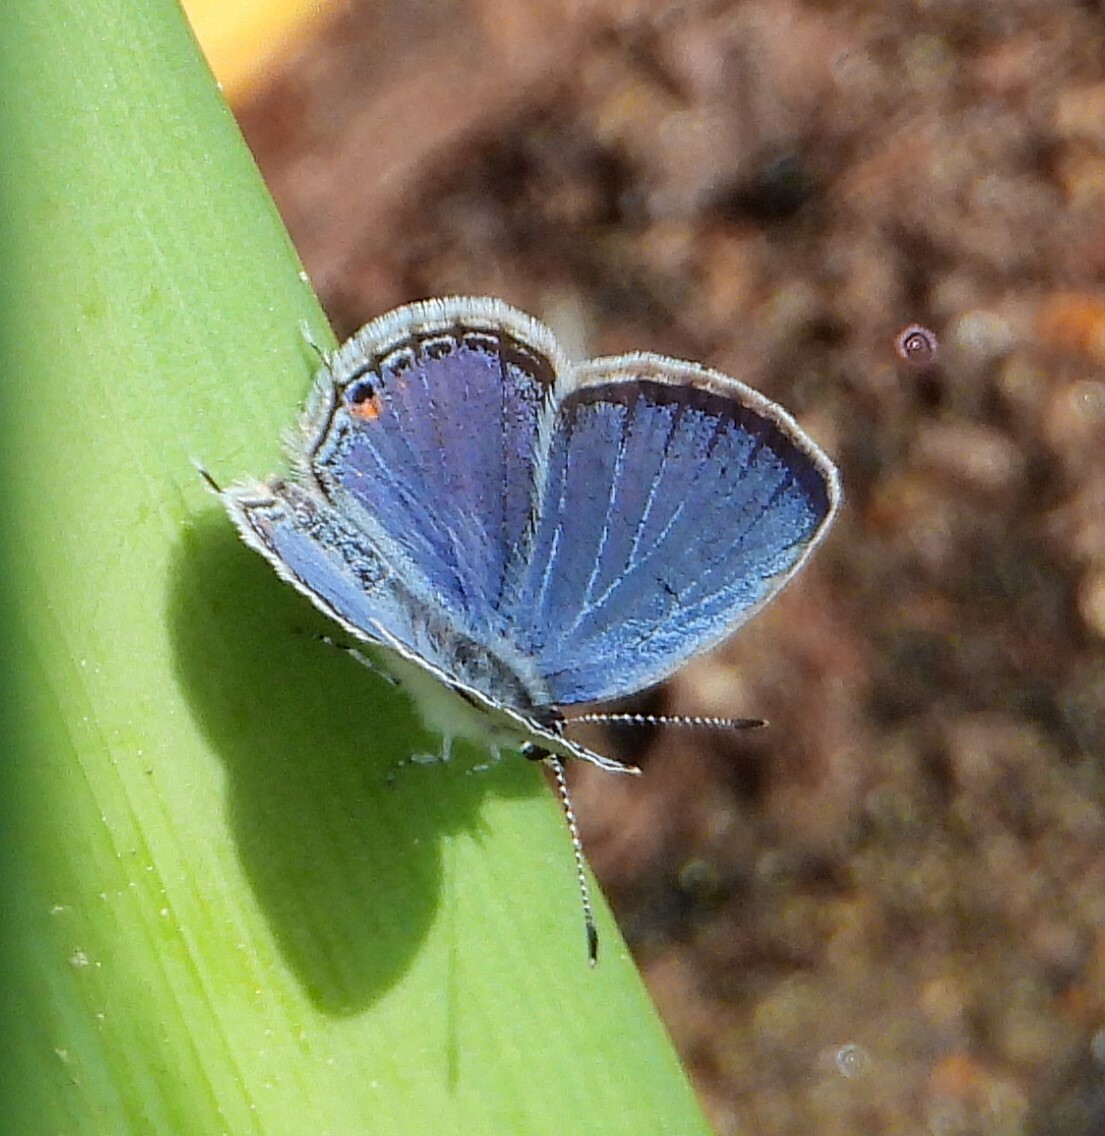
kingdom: Animalia
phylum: Arthropoda
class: Insecta
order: Lepidoptera
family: Lycaenidae
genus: Elkalyce
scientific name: Elkalyce comyntas
